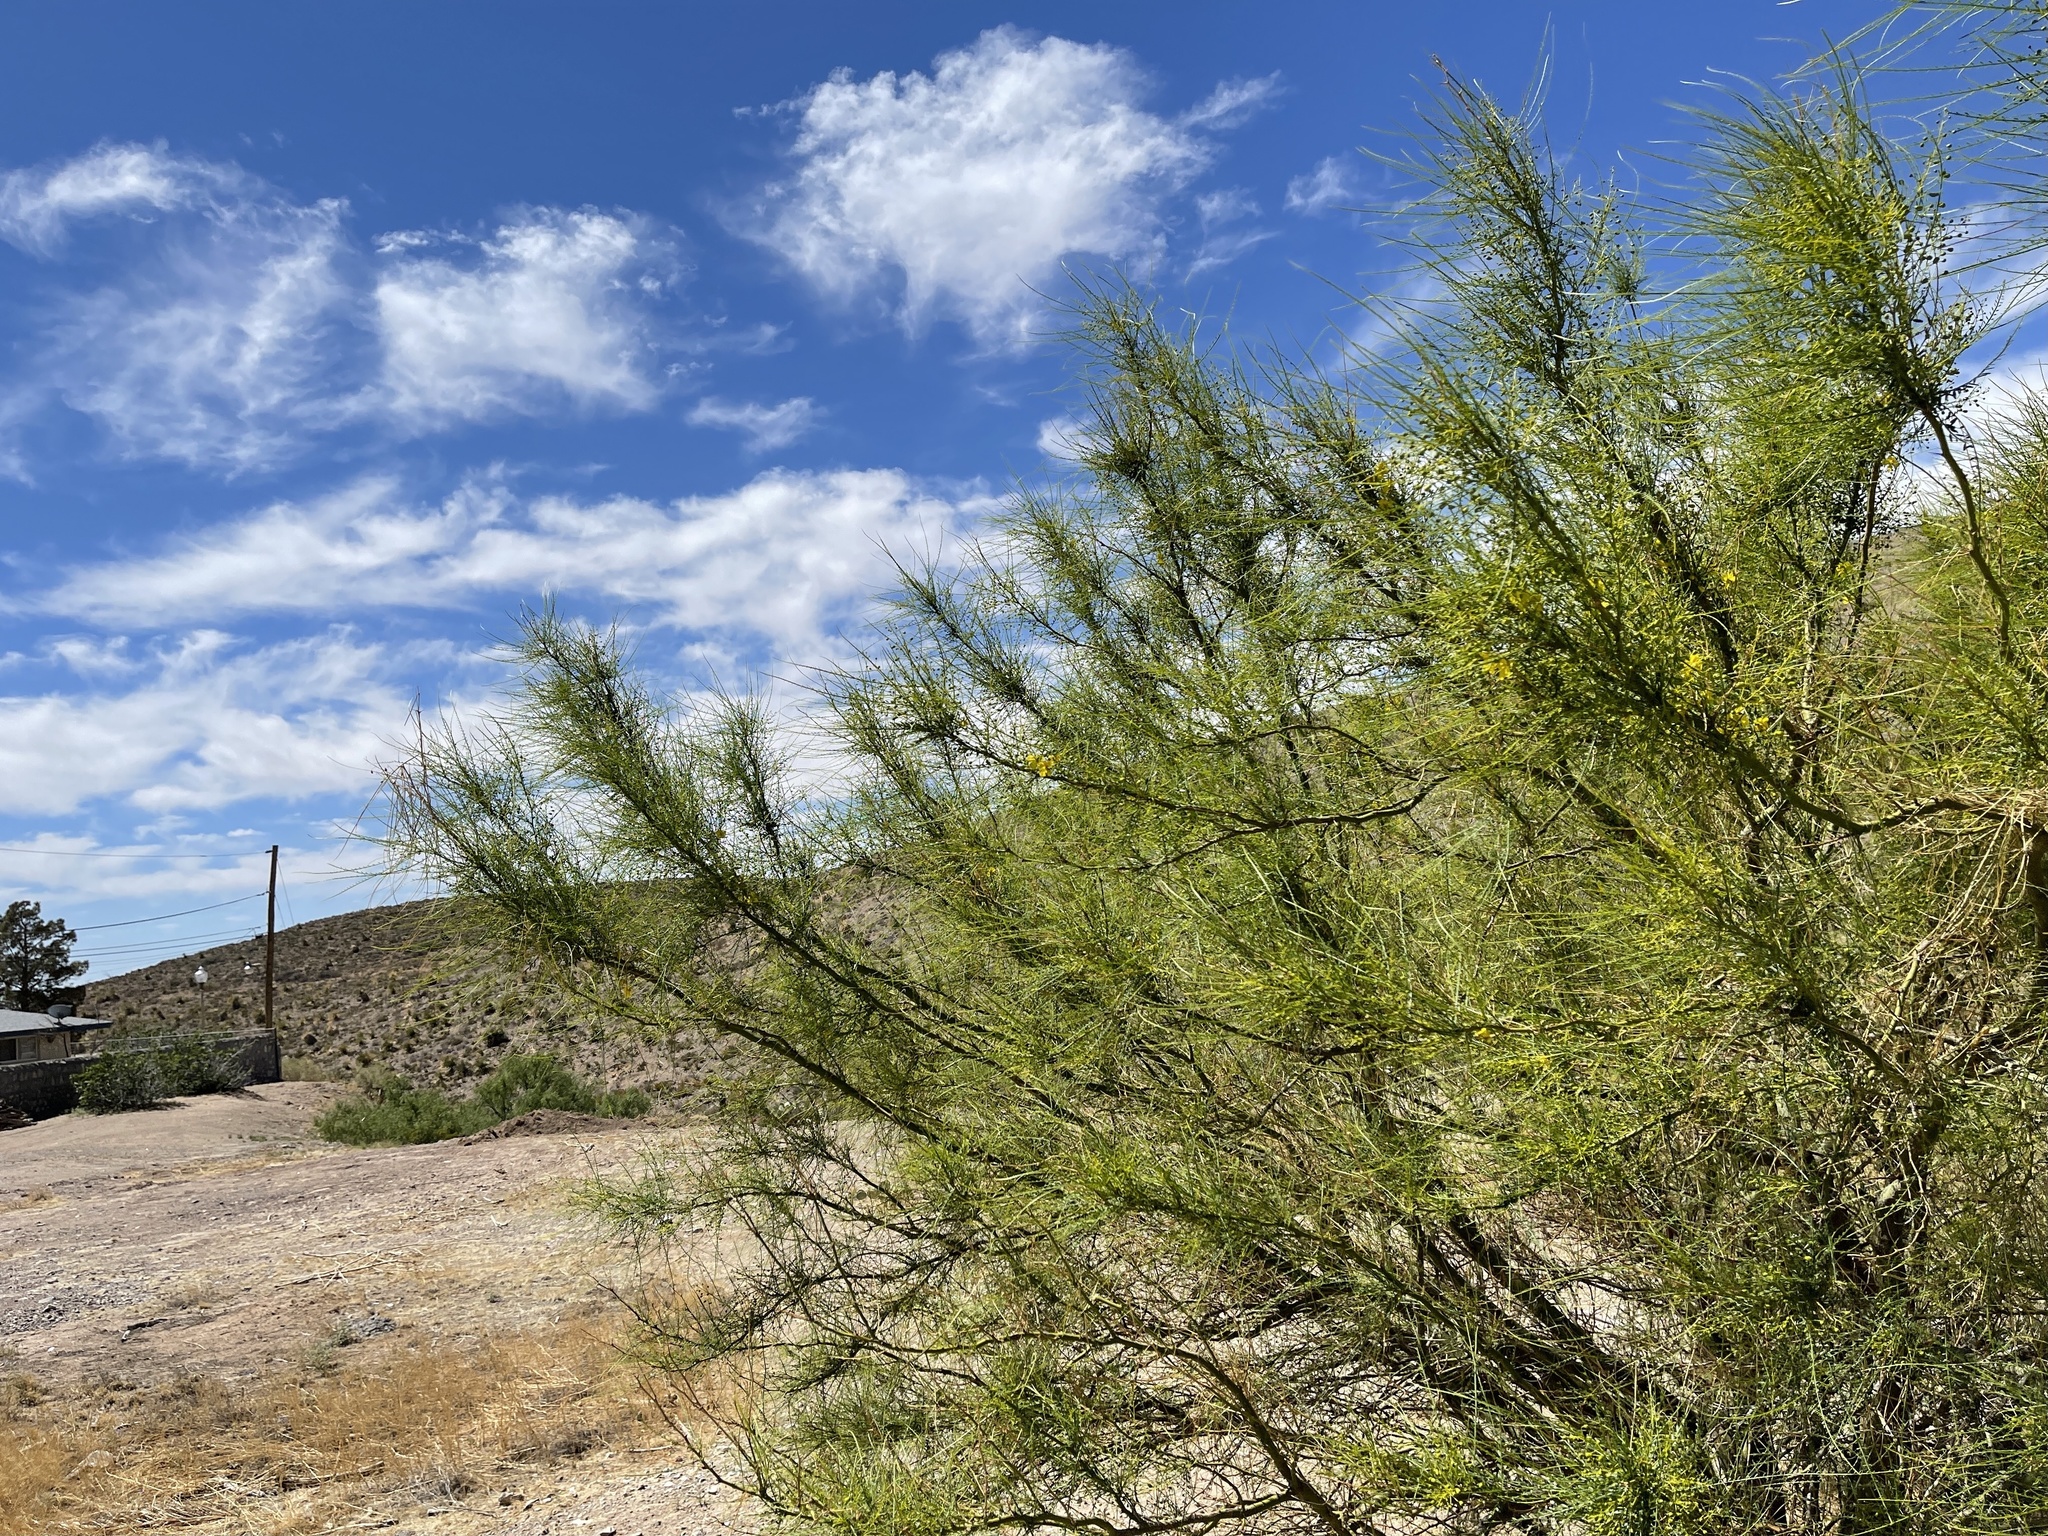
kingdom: Plantae
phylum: Tracheophyta
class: Magnoliopsida
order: Fabales
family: Fabaceae
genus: Parkinsonia
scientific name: Parkinsonia aculeata
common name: Jerusalem thorn
